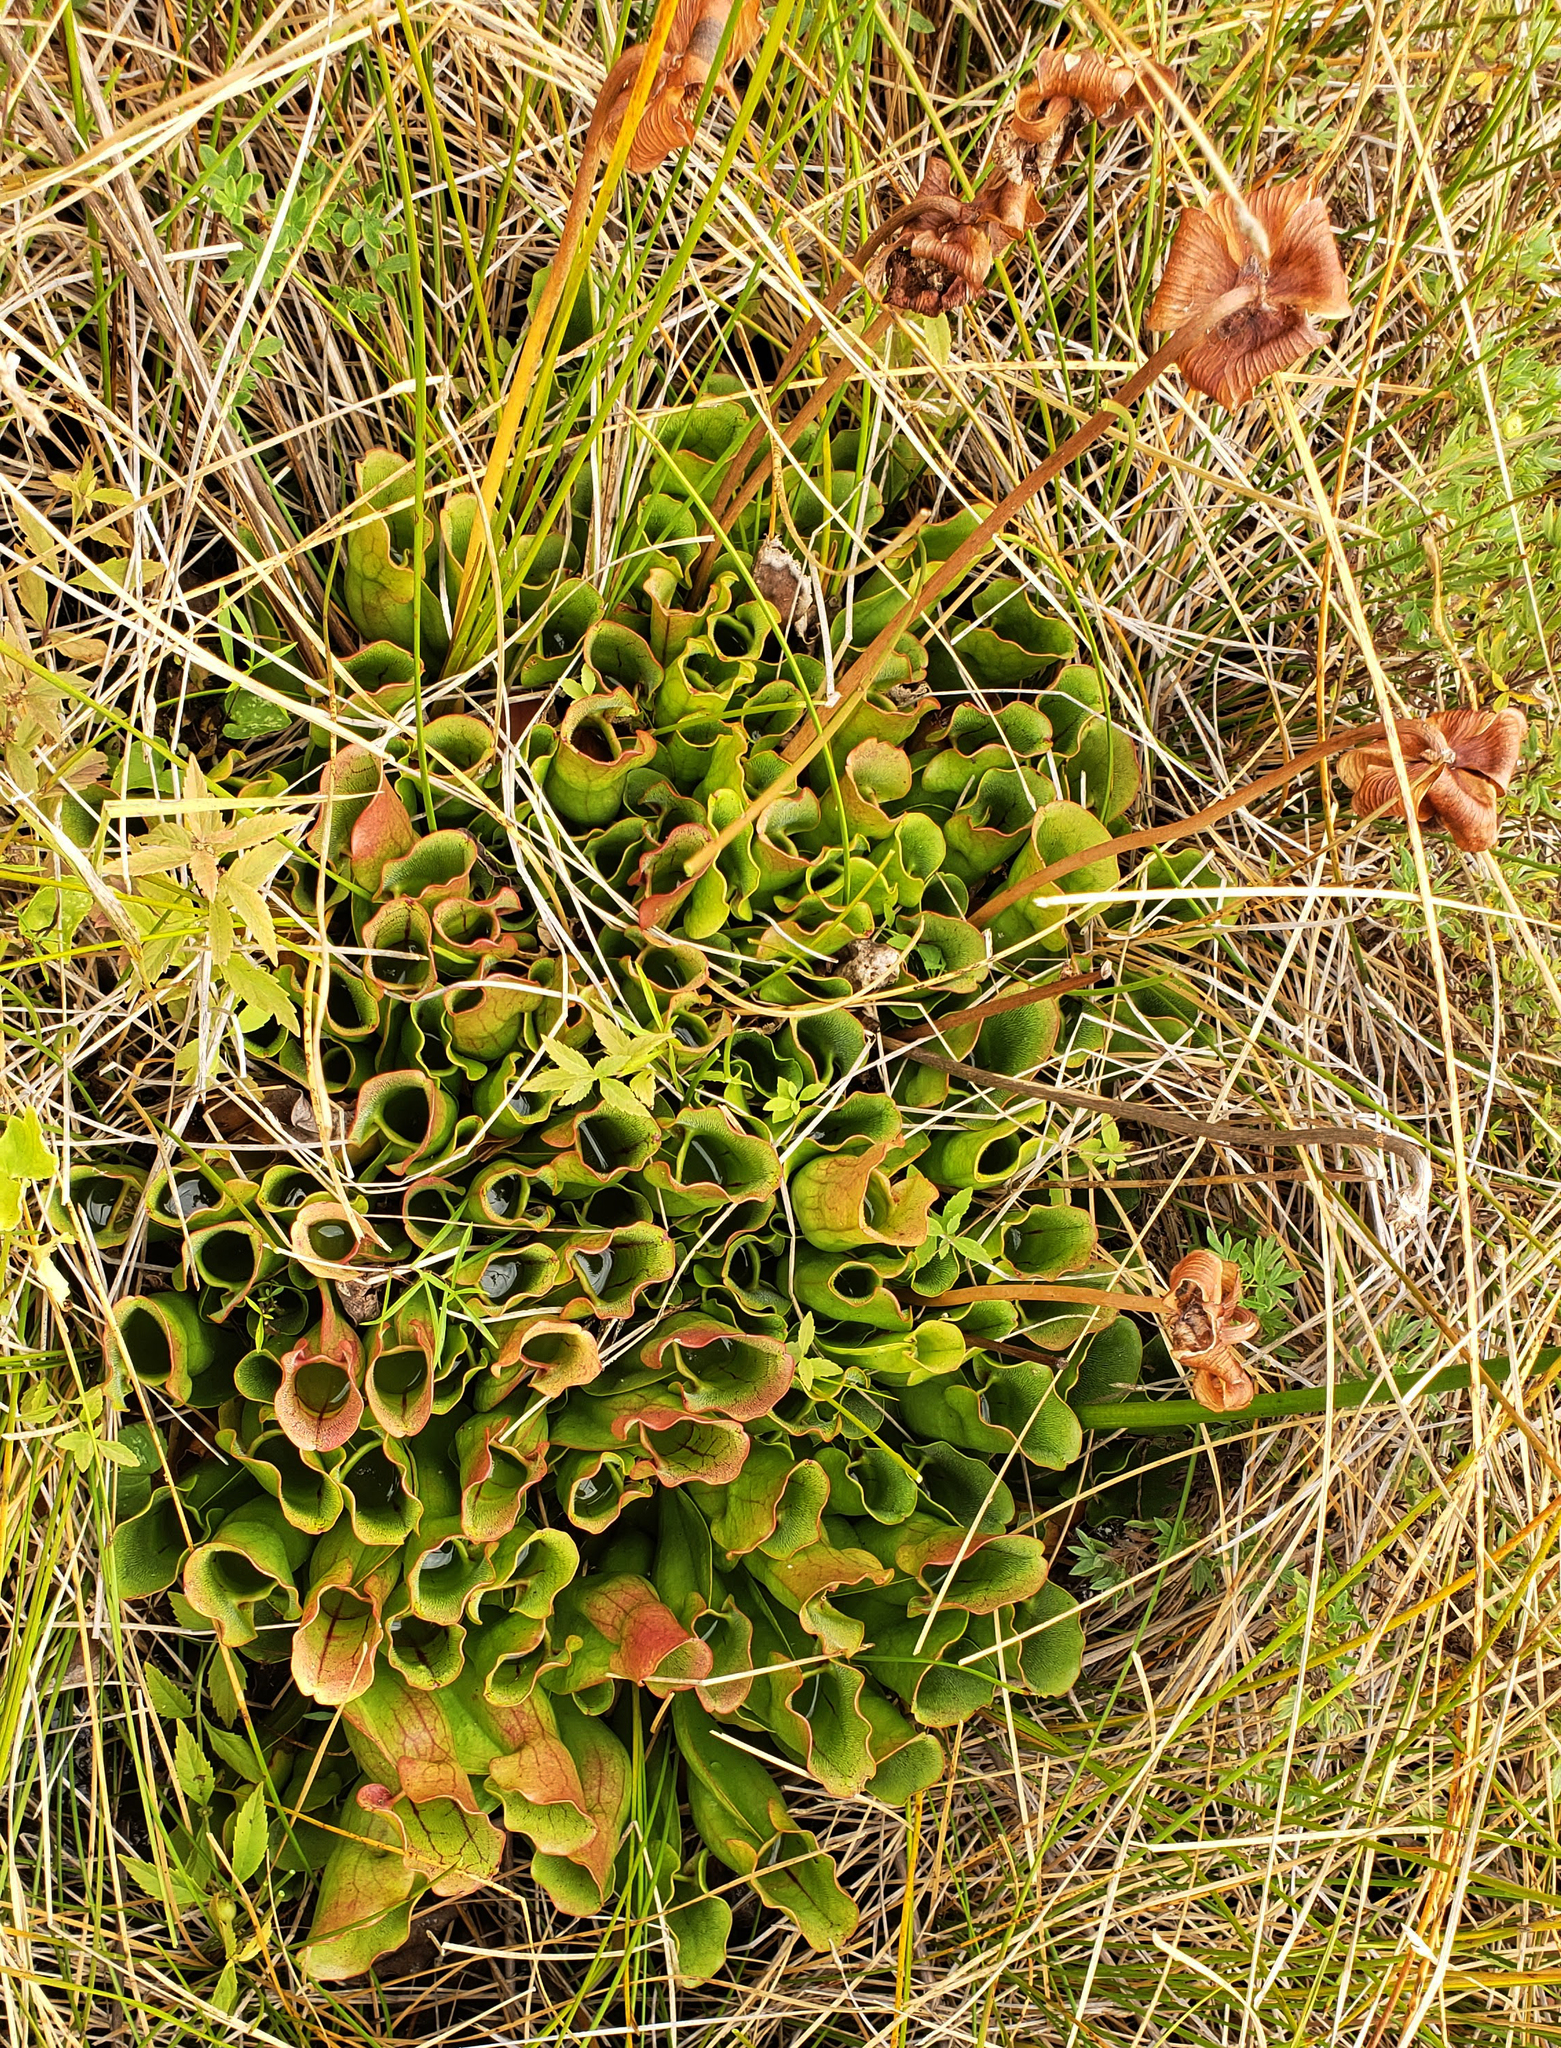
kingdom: Plantae
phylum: Tracheophyta
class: Magnoliopsida
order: Ericales
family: Sarraceniaceae
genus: Sarracenia
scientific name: Sarracenia purpurea
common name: Pitcherplant
